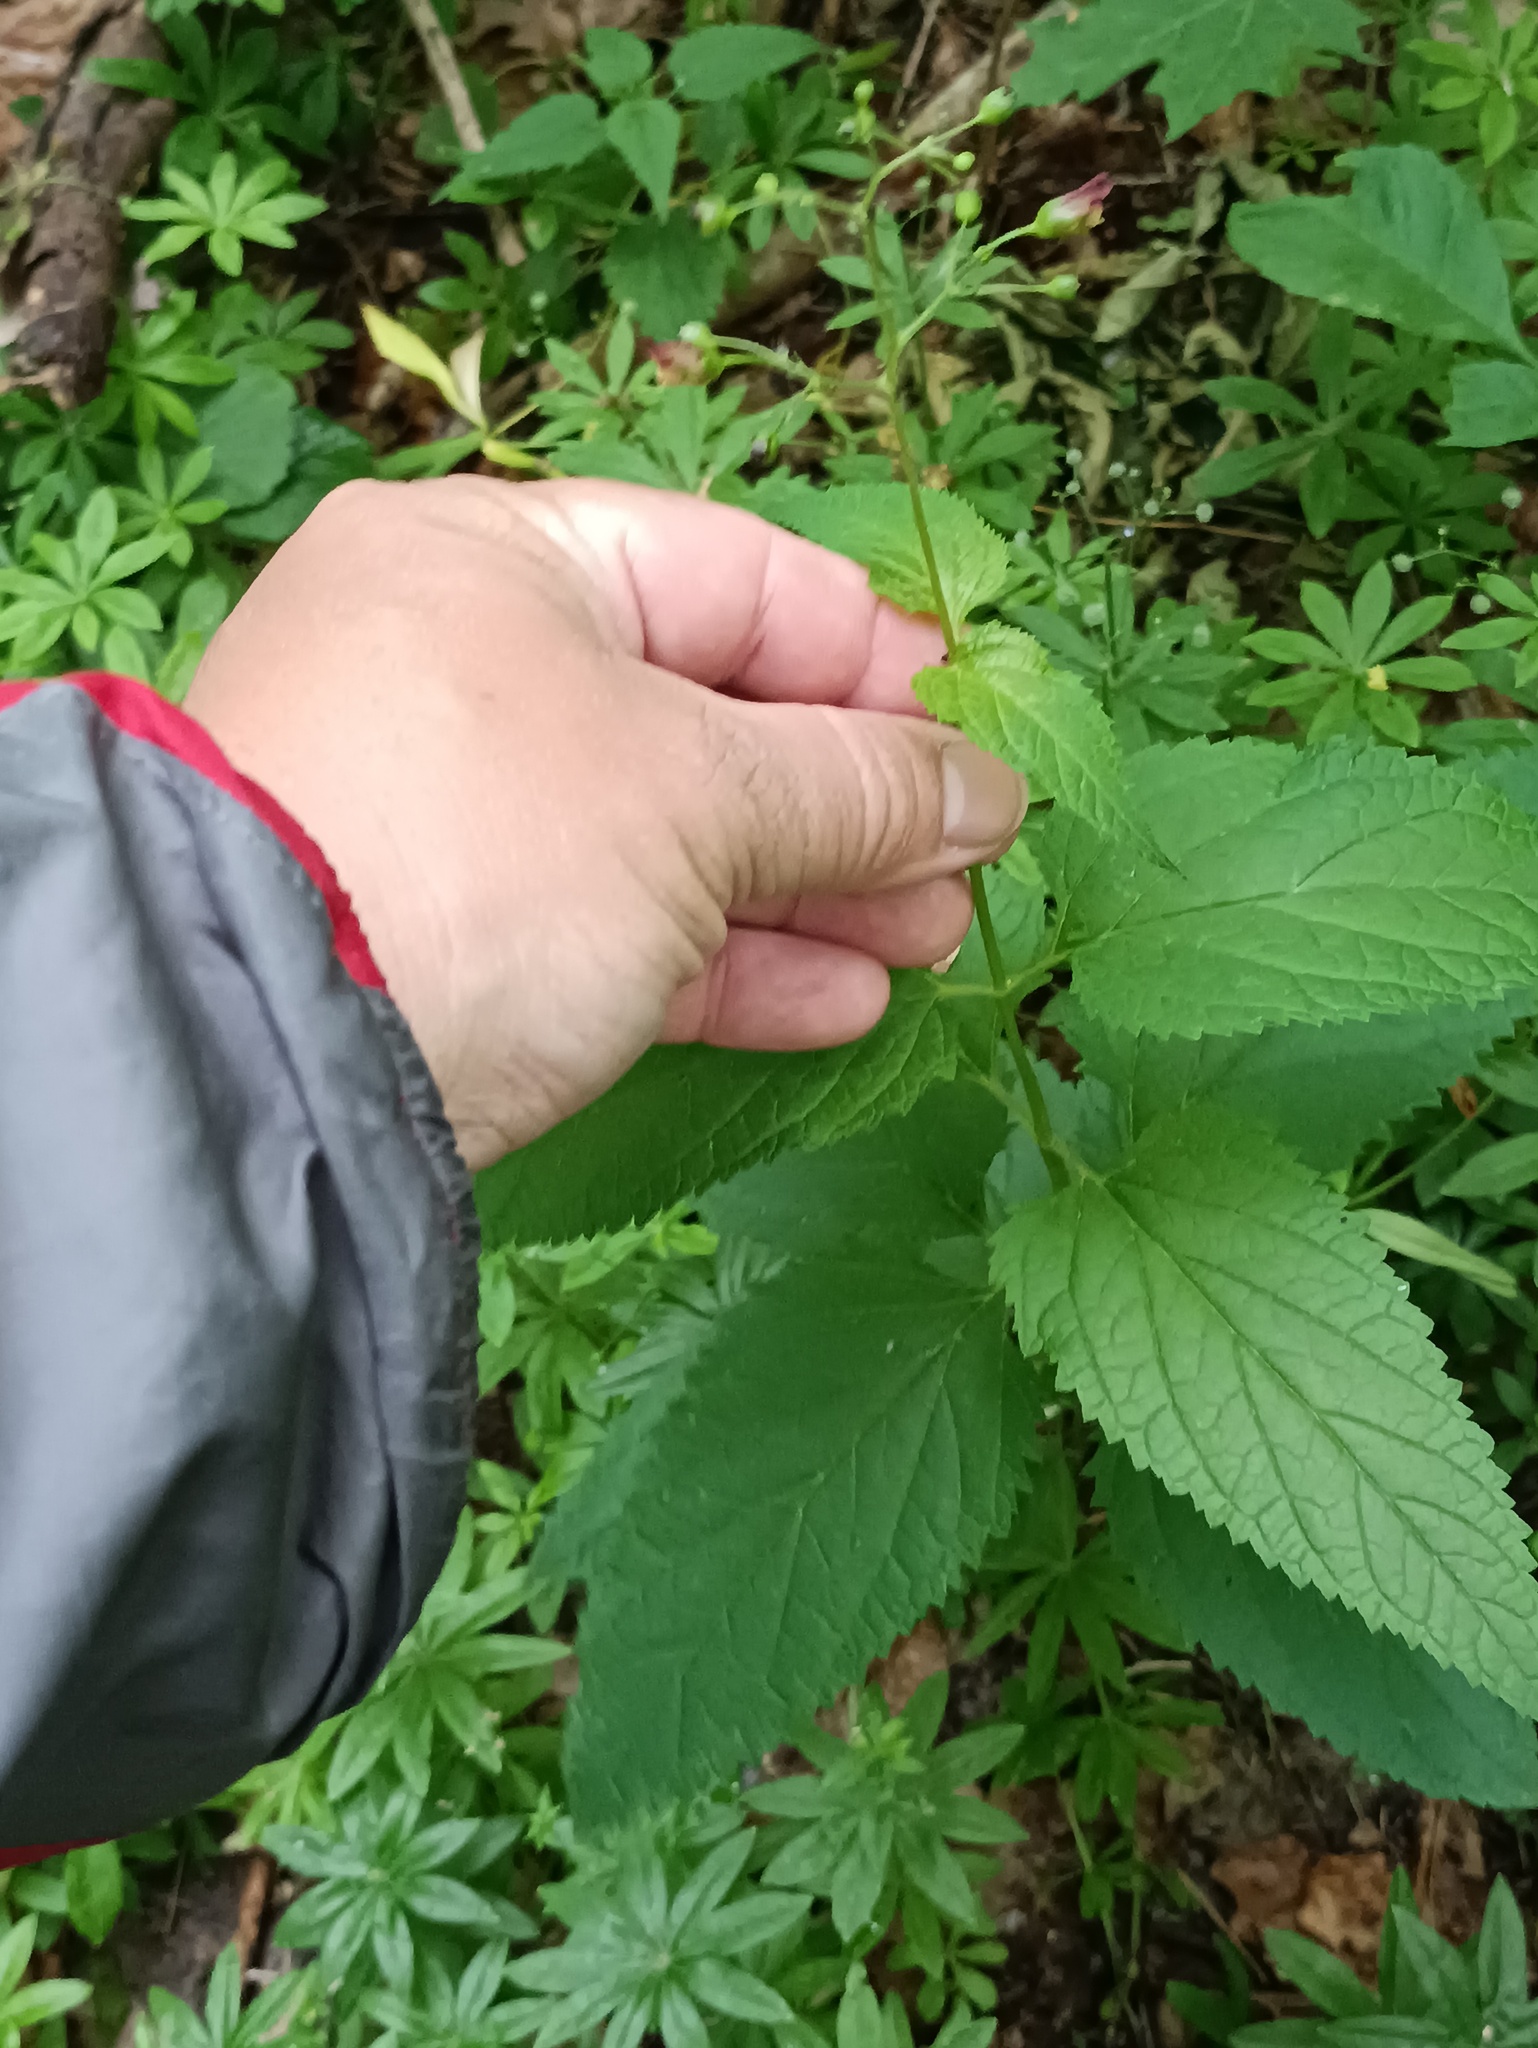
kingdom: Plantae
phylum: Tracheophyta
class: Magnoliopsida
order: Lamiales
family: Scrophulariaceae
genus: Scrophularia
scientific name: Scrophularia nodosa
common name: Common figwort
